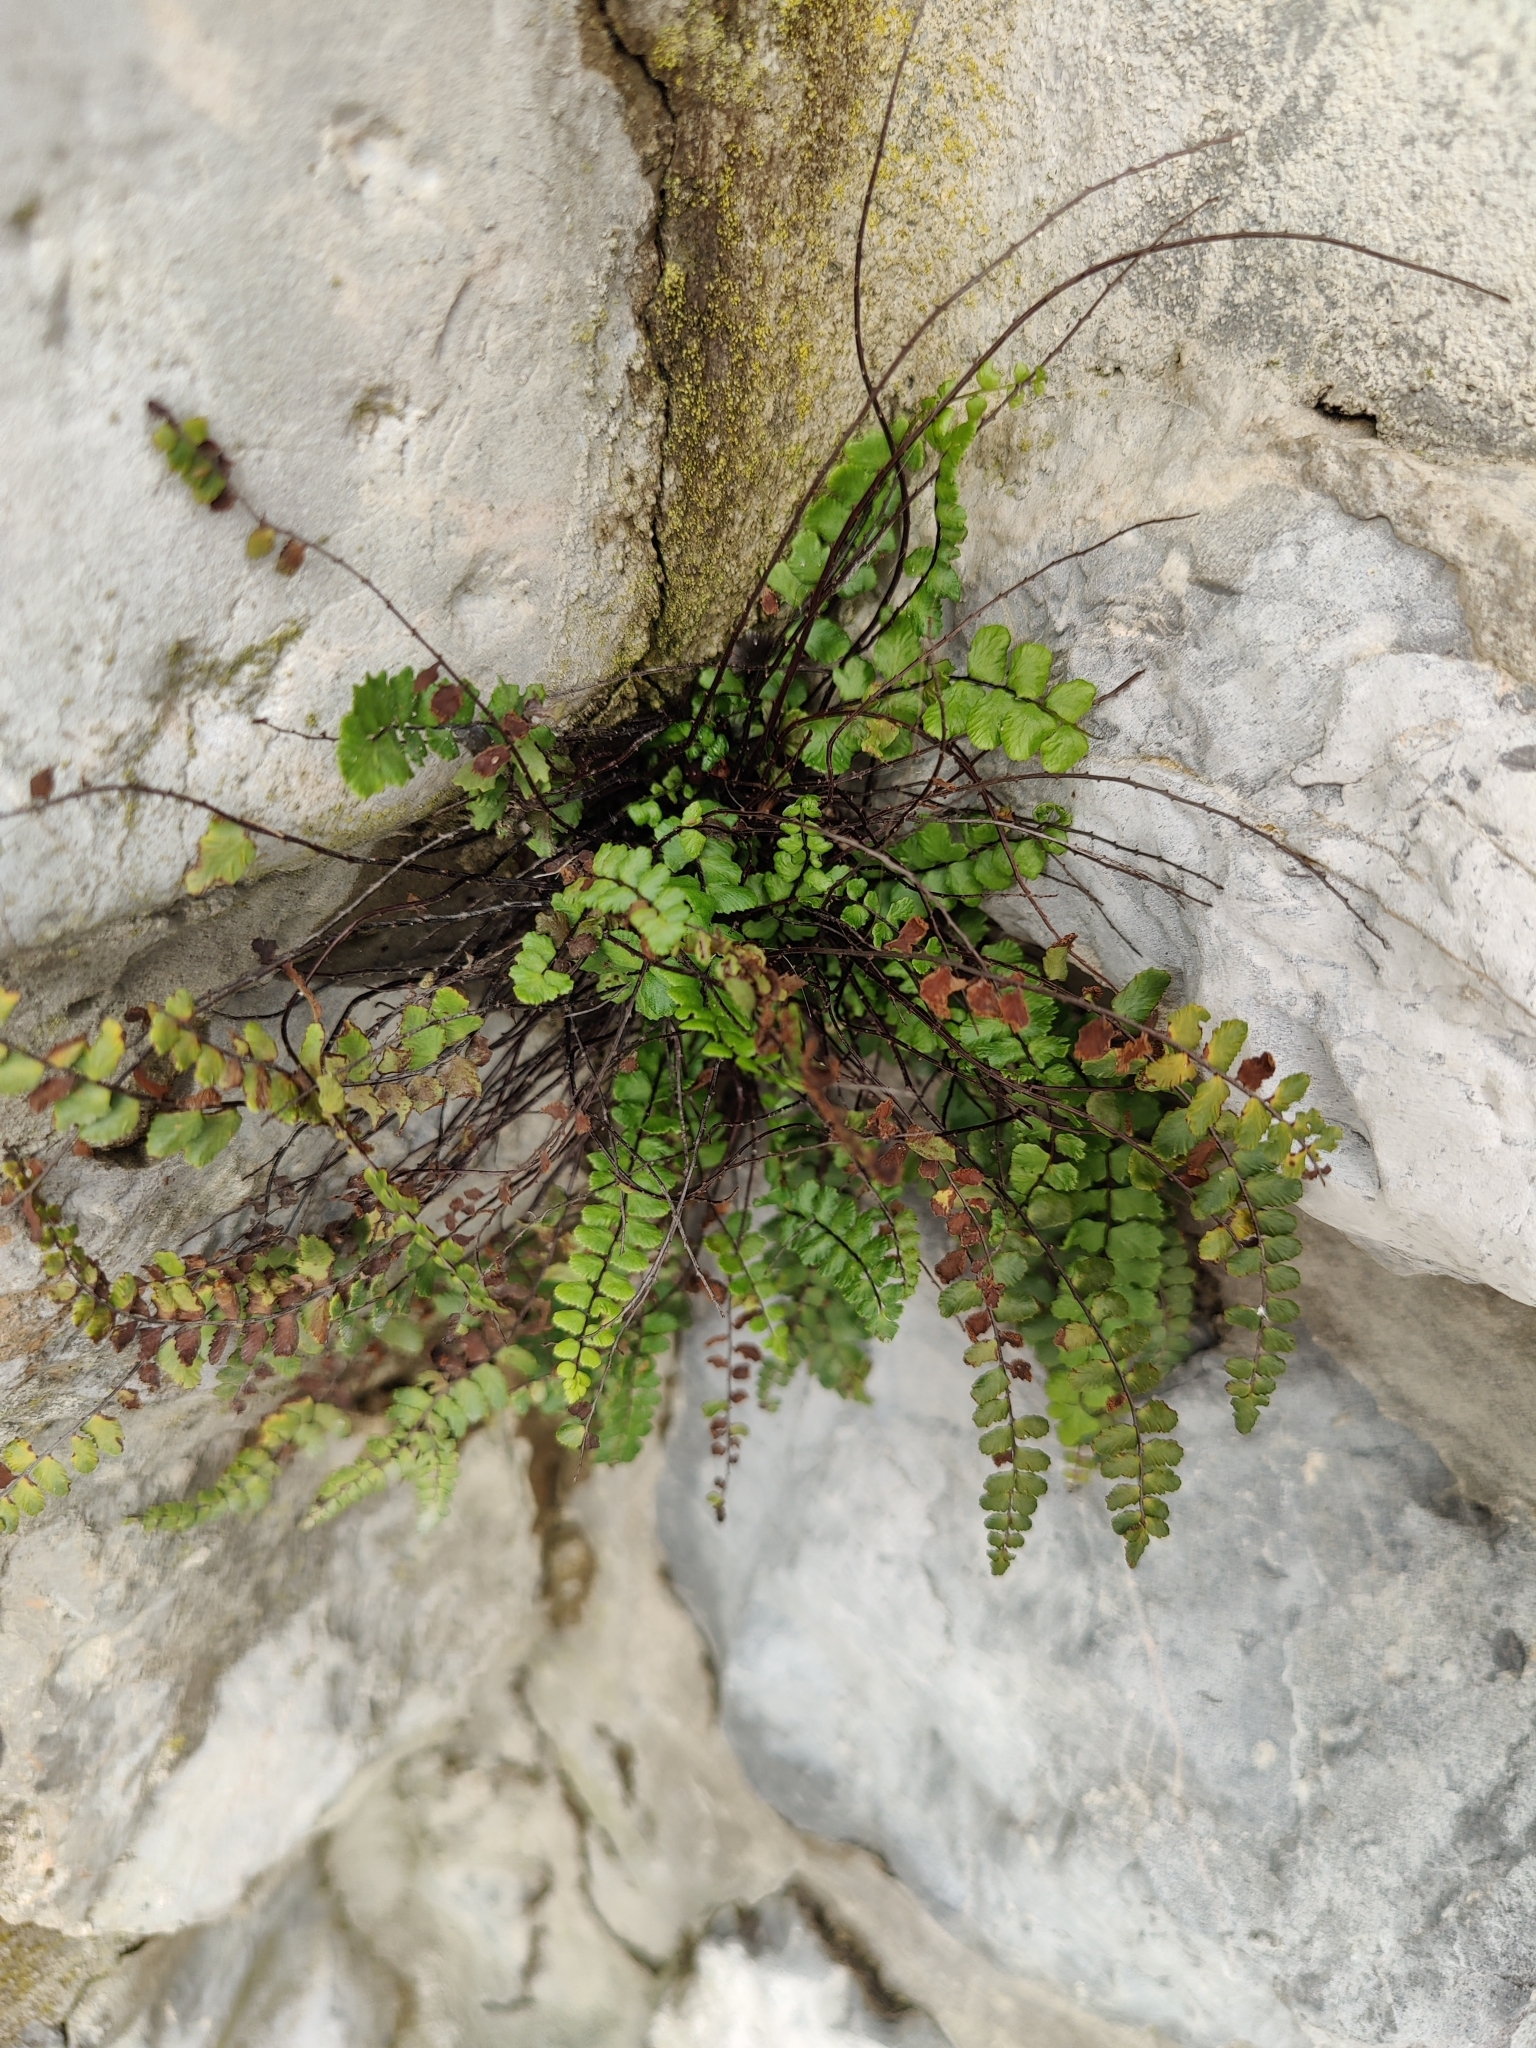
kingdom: Plantae
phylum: Tracheophyta
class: Polypodiopsida
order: Polypodiales
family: Aspleniaceae
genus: Asplenium
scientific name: Asplenium trichomanes
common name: Maidenhair spleenwort
